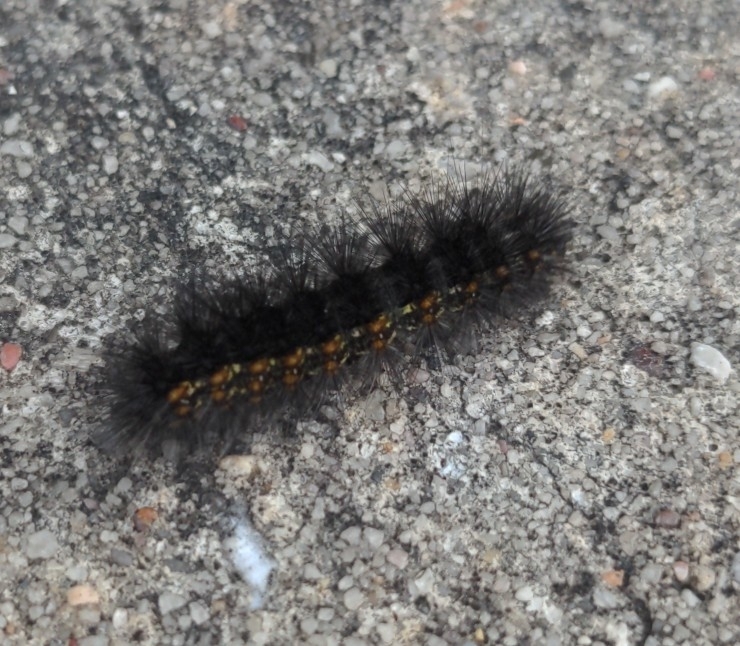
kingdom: Animalia
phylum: Arthropoda
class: Insecta
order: Lepidoptera
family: Erebidae
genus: Estigmene
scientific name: Estigmene acrea
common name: Salt marsh moth
